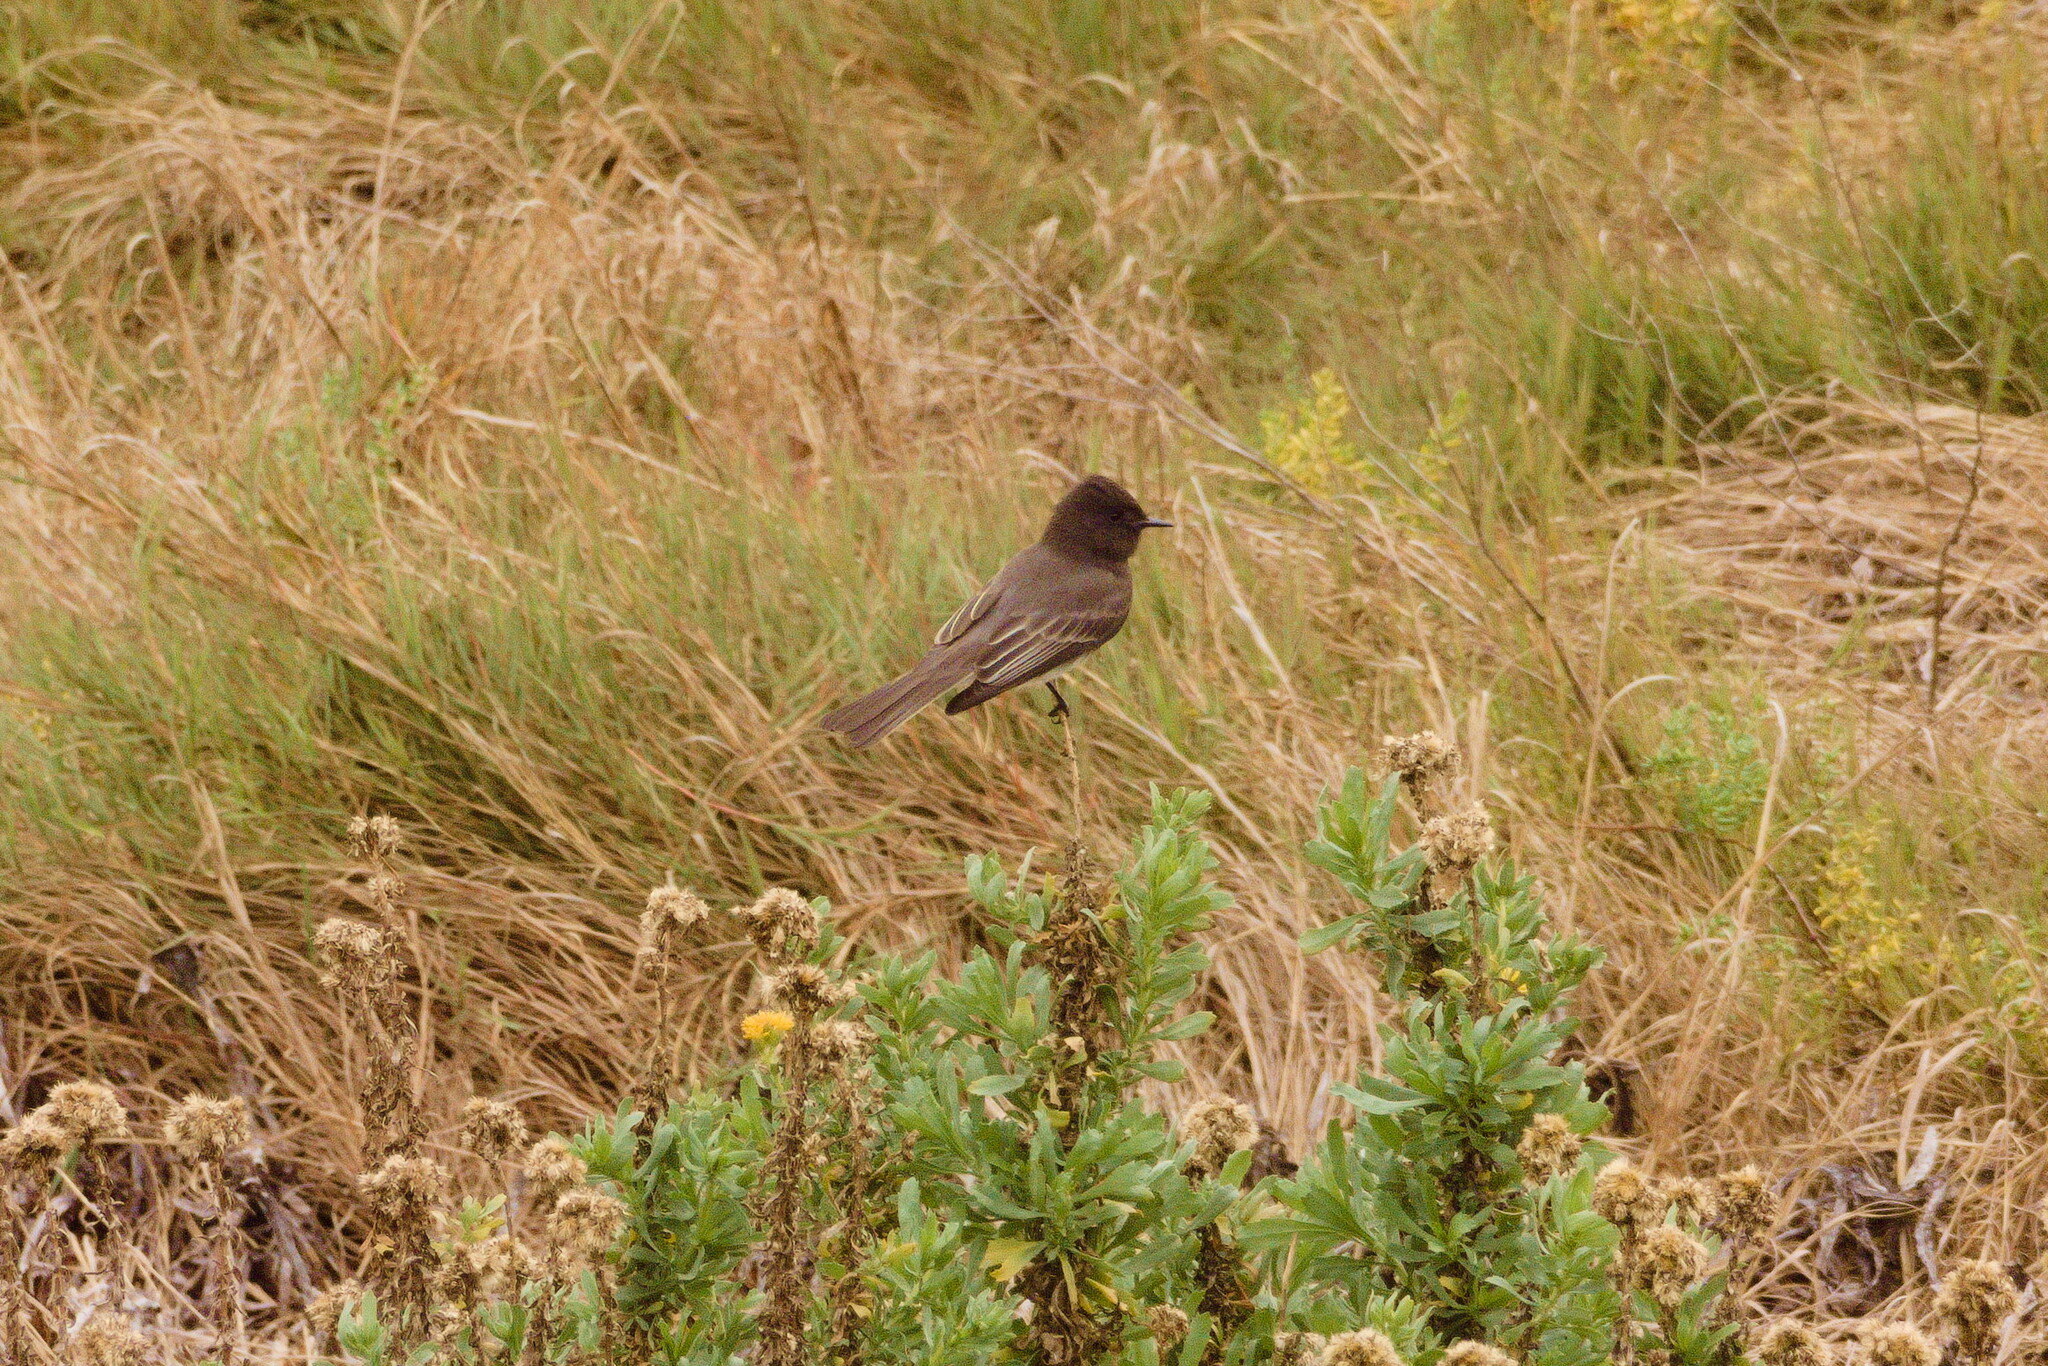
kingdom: Animalia
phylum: Chordata
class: Aves
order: Passeriformes
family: Tyrannidae
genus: Sayornis
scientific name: Sayornis nigricans
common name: Black phoebe
